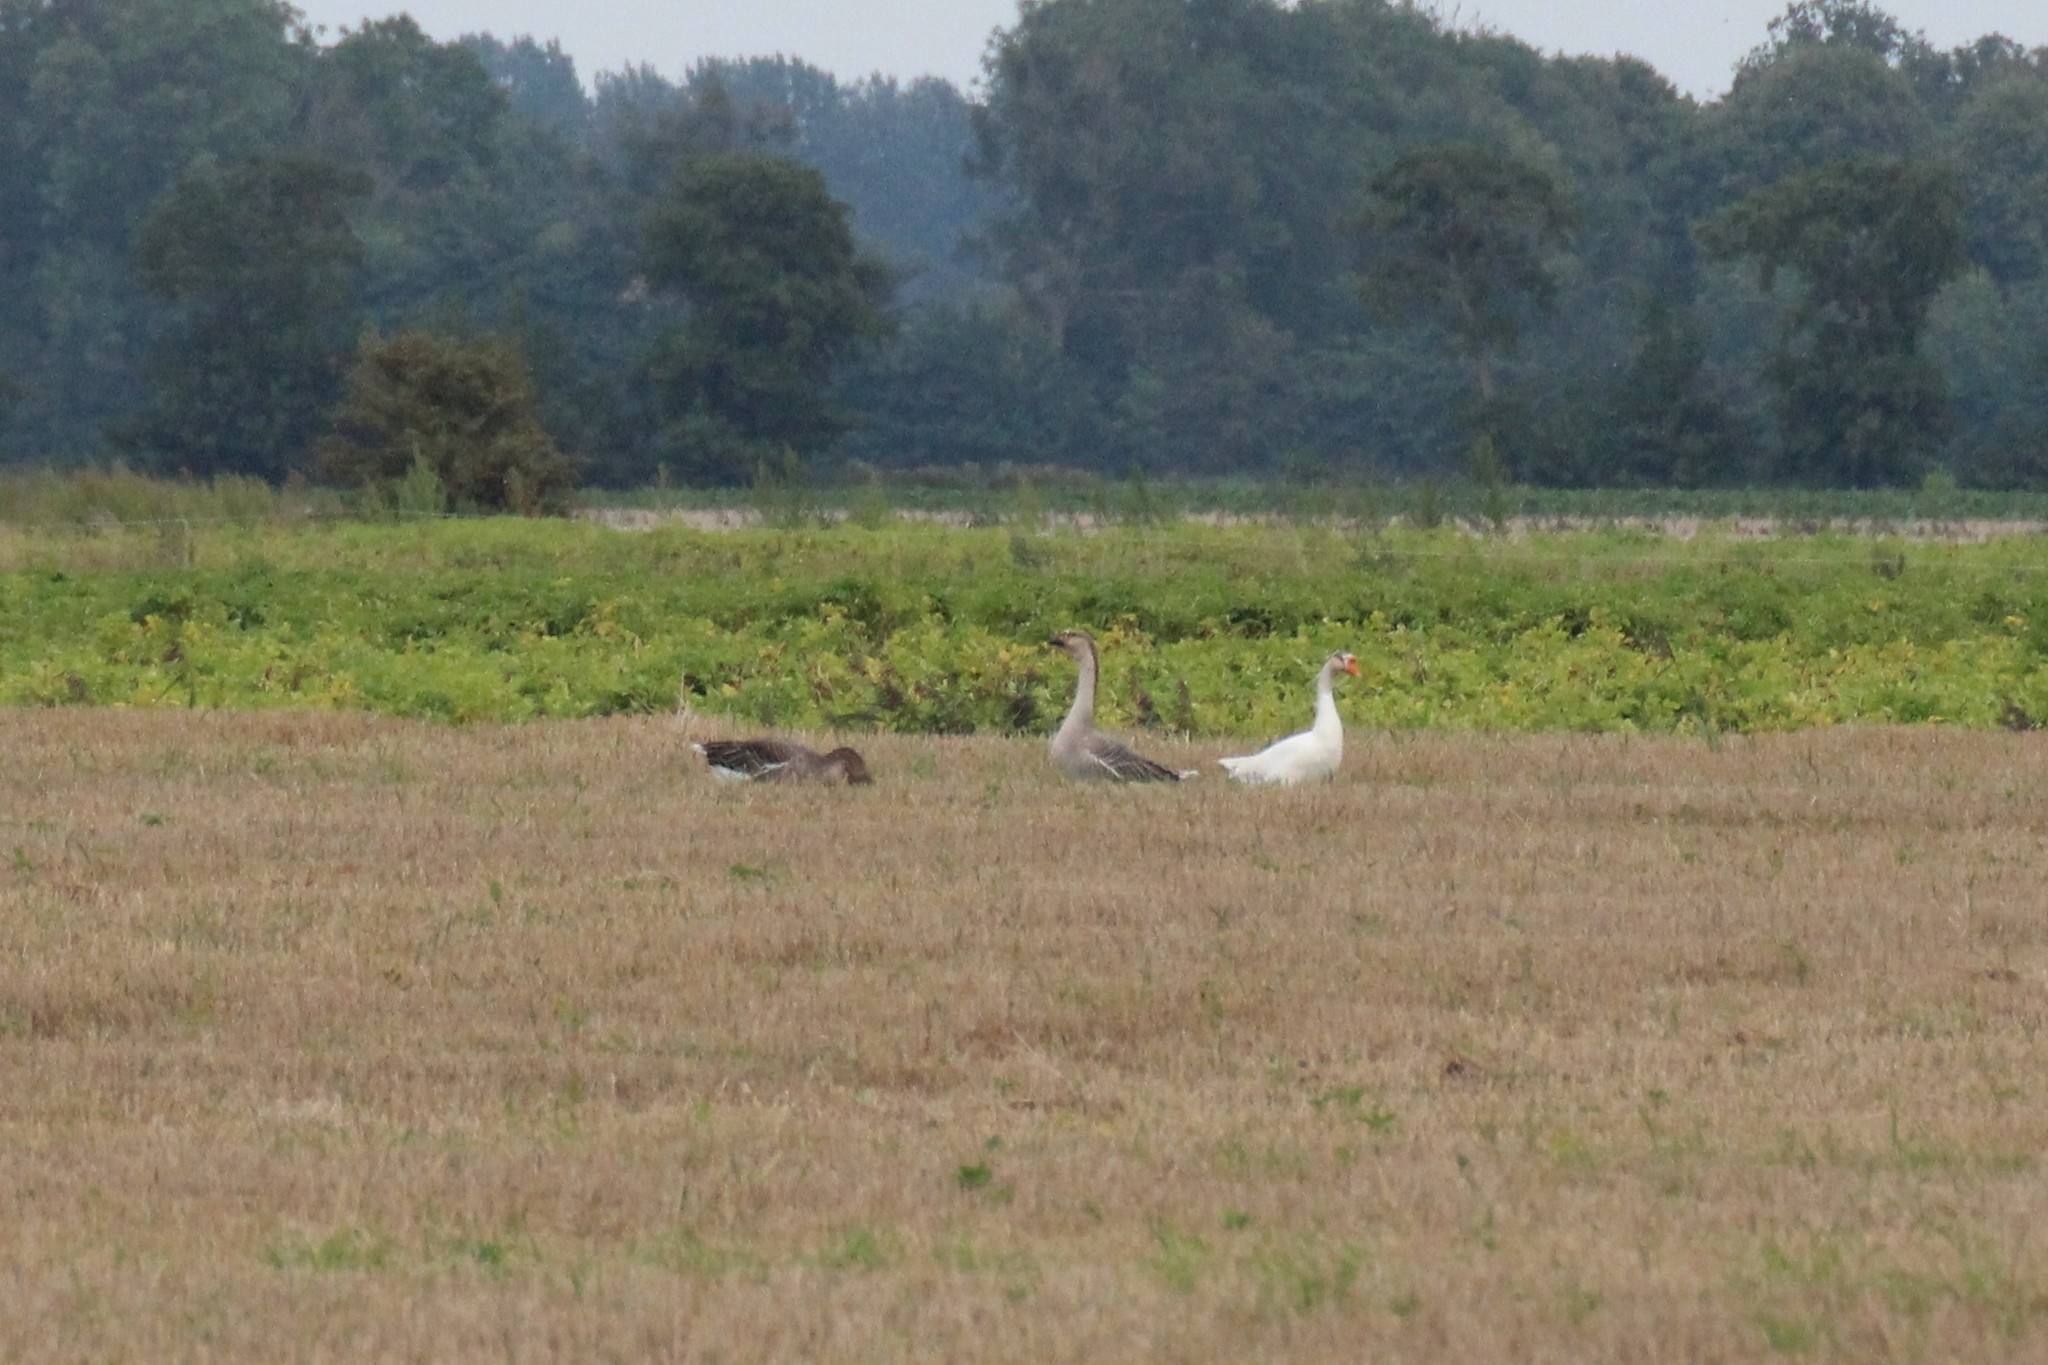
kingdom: Animalia
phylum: Chordata
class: Aves
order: Anseriformes
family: Anatidae
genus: Anser
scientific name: Anser cygnoides
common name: Swan goose
